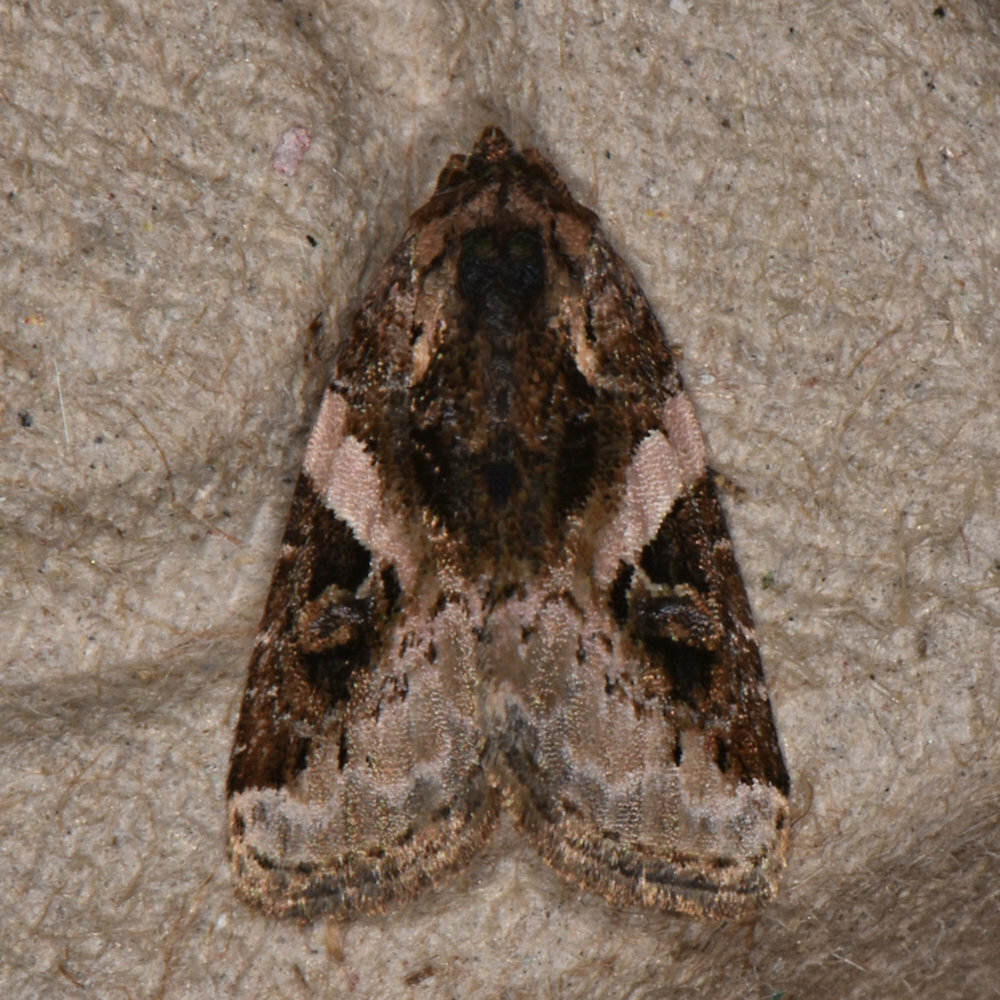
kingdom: Animalia
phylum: Arthropoda
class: Insecta
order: Lepidoptera
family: Noctuidae
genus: Pseudeustrotia
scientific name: Pseudeustrotia carneola
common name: Pink-barred lithacodia moth
